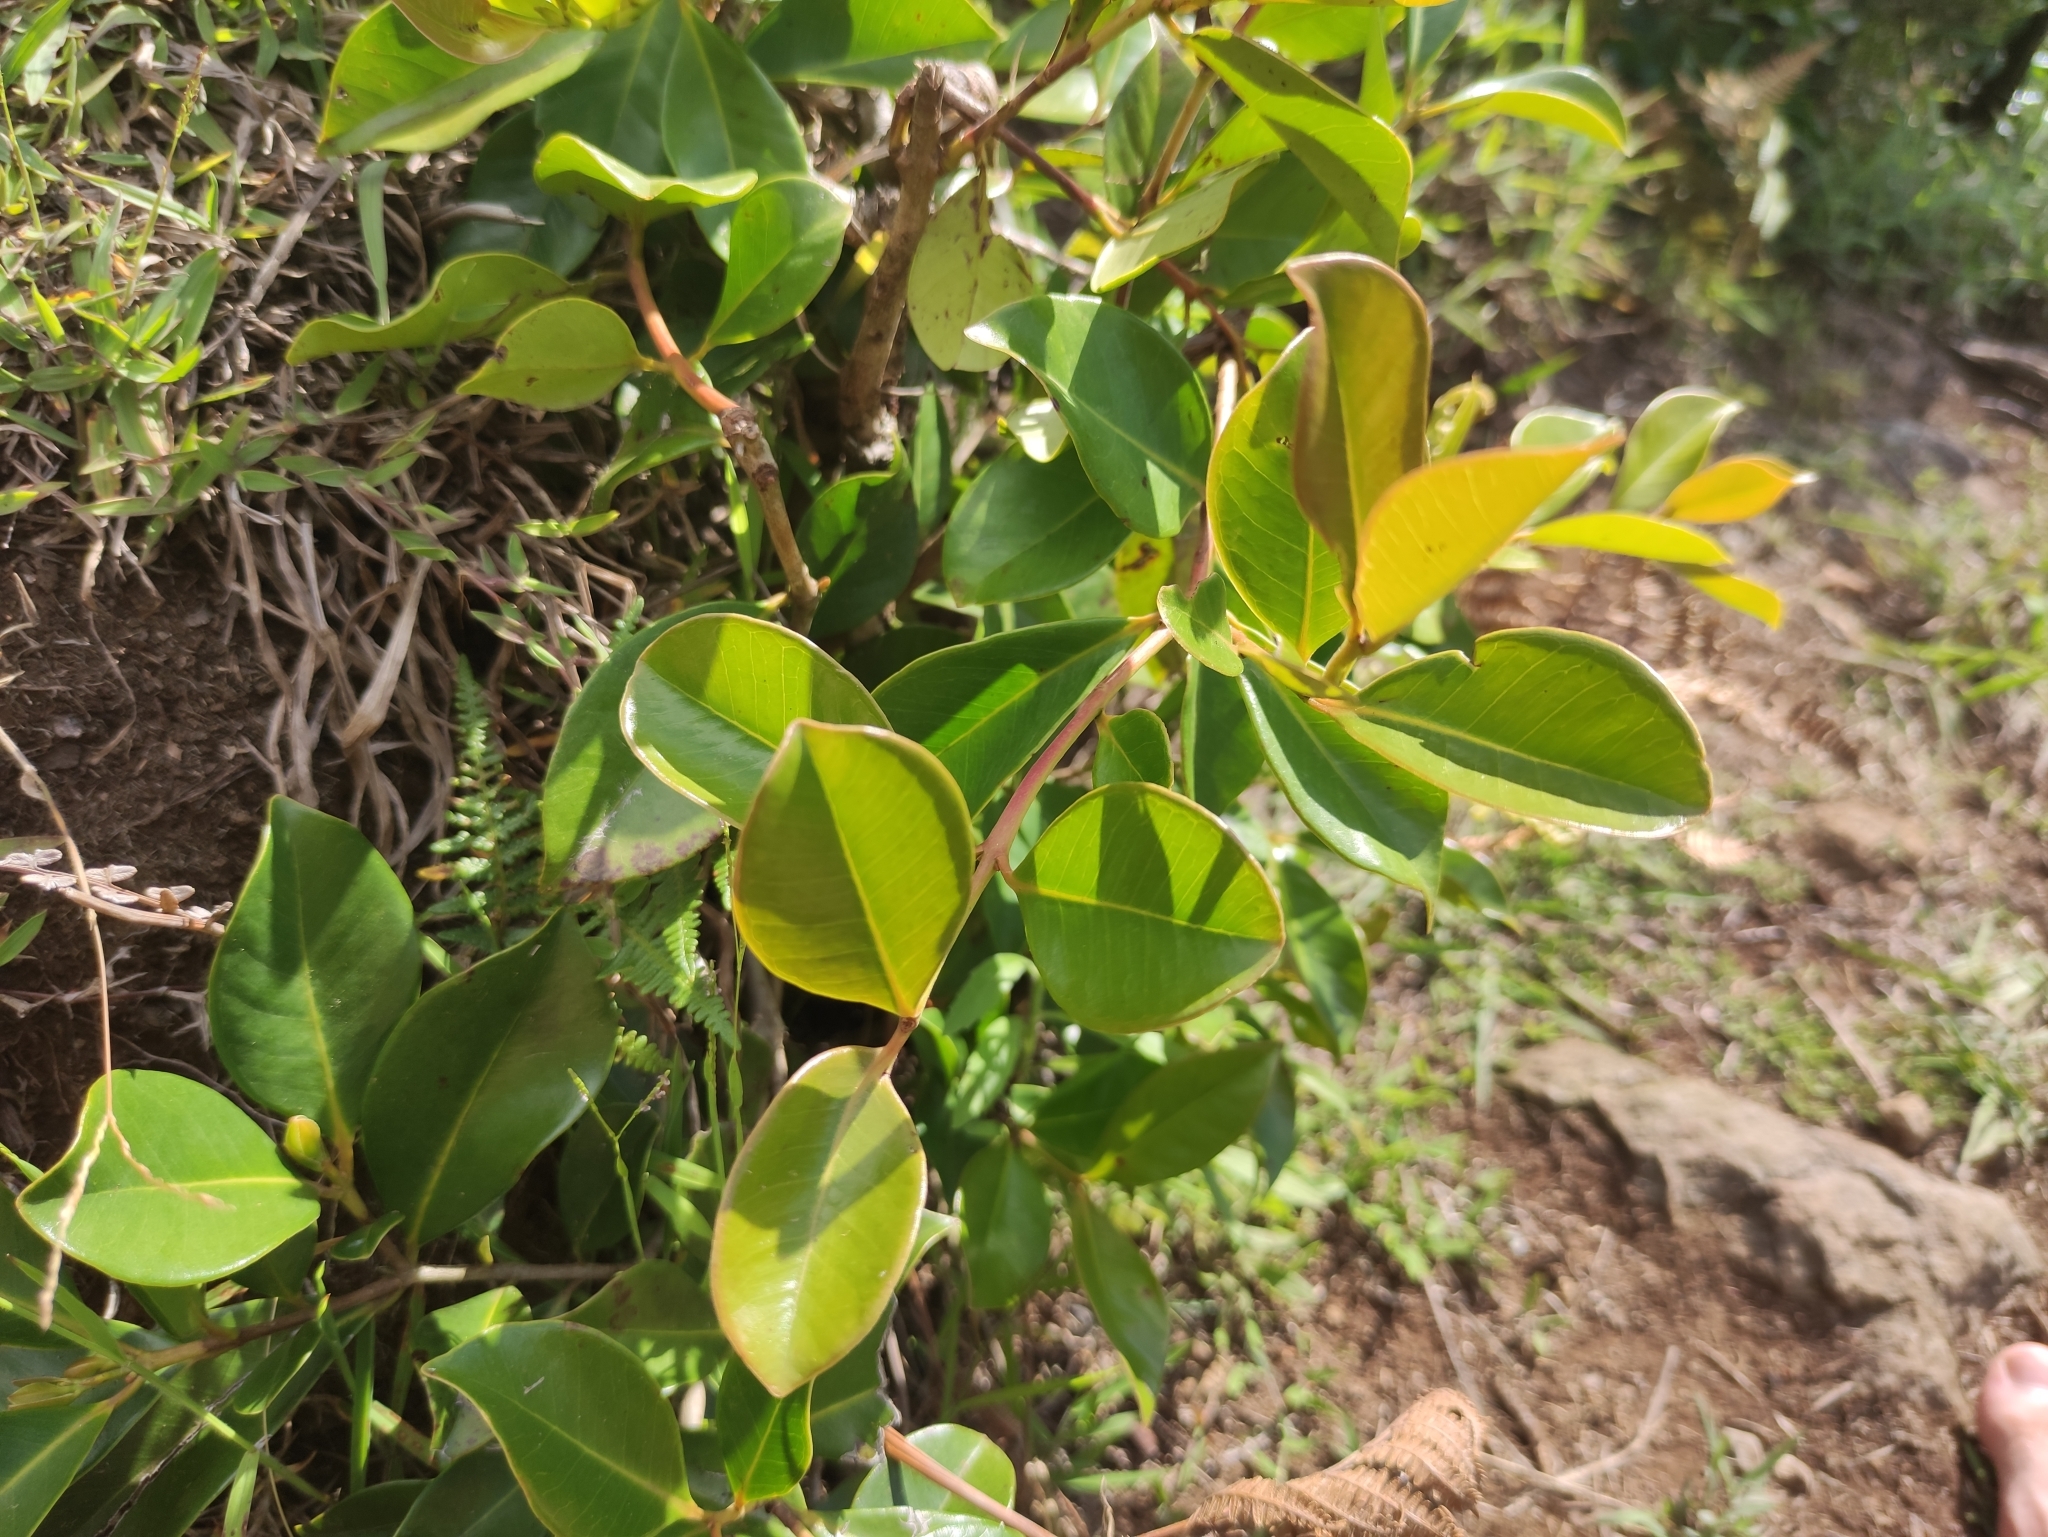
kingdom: Plantae
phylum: Tracheophyta
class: Magnoliopsida
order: Myrtales
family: Myrtaceae
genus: Psidium
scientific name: Psidium cattleianum
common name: Strawberry guava
